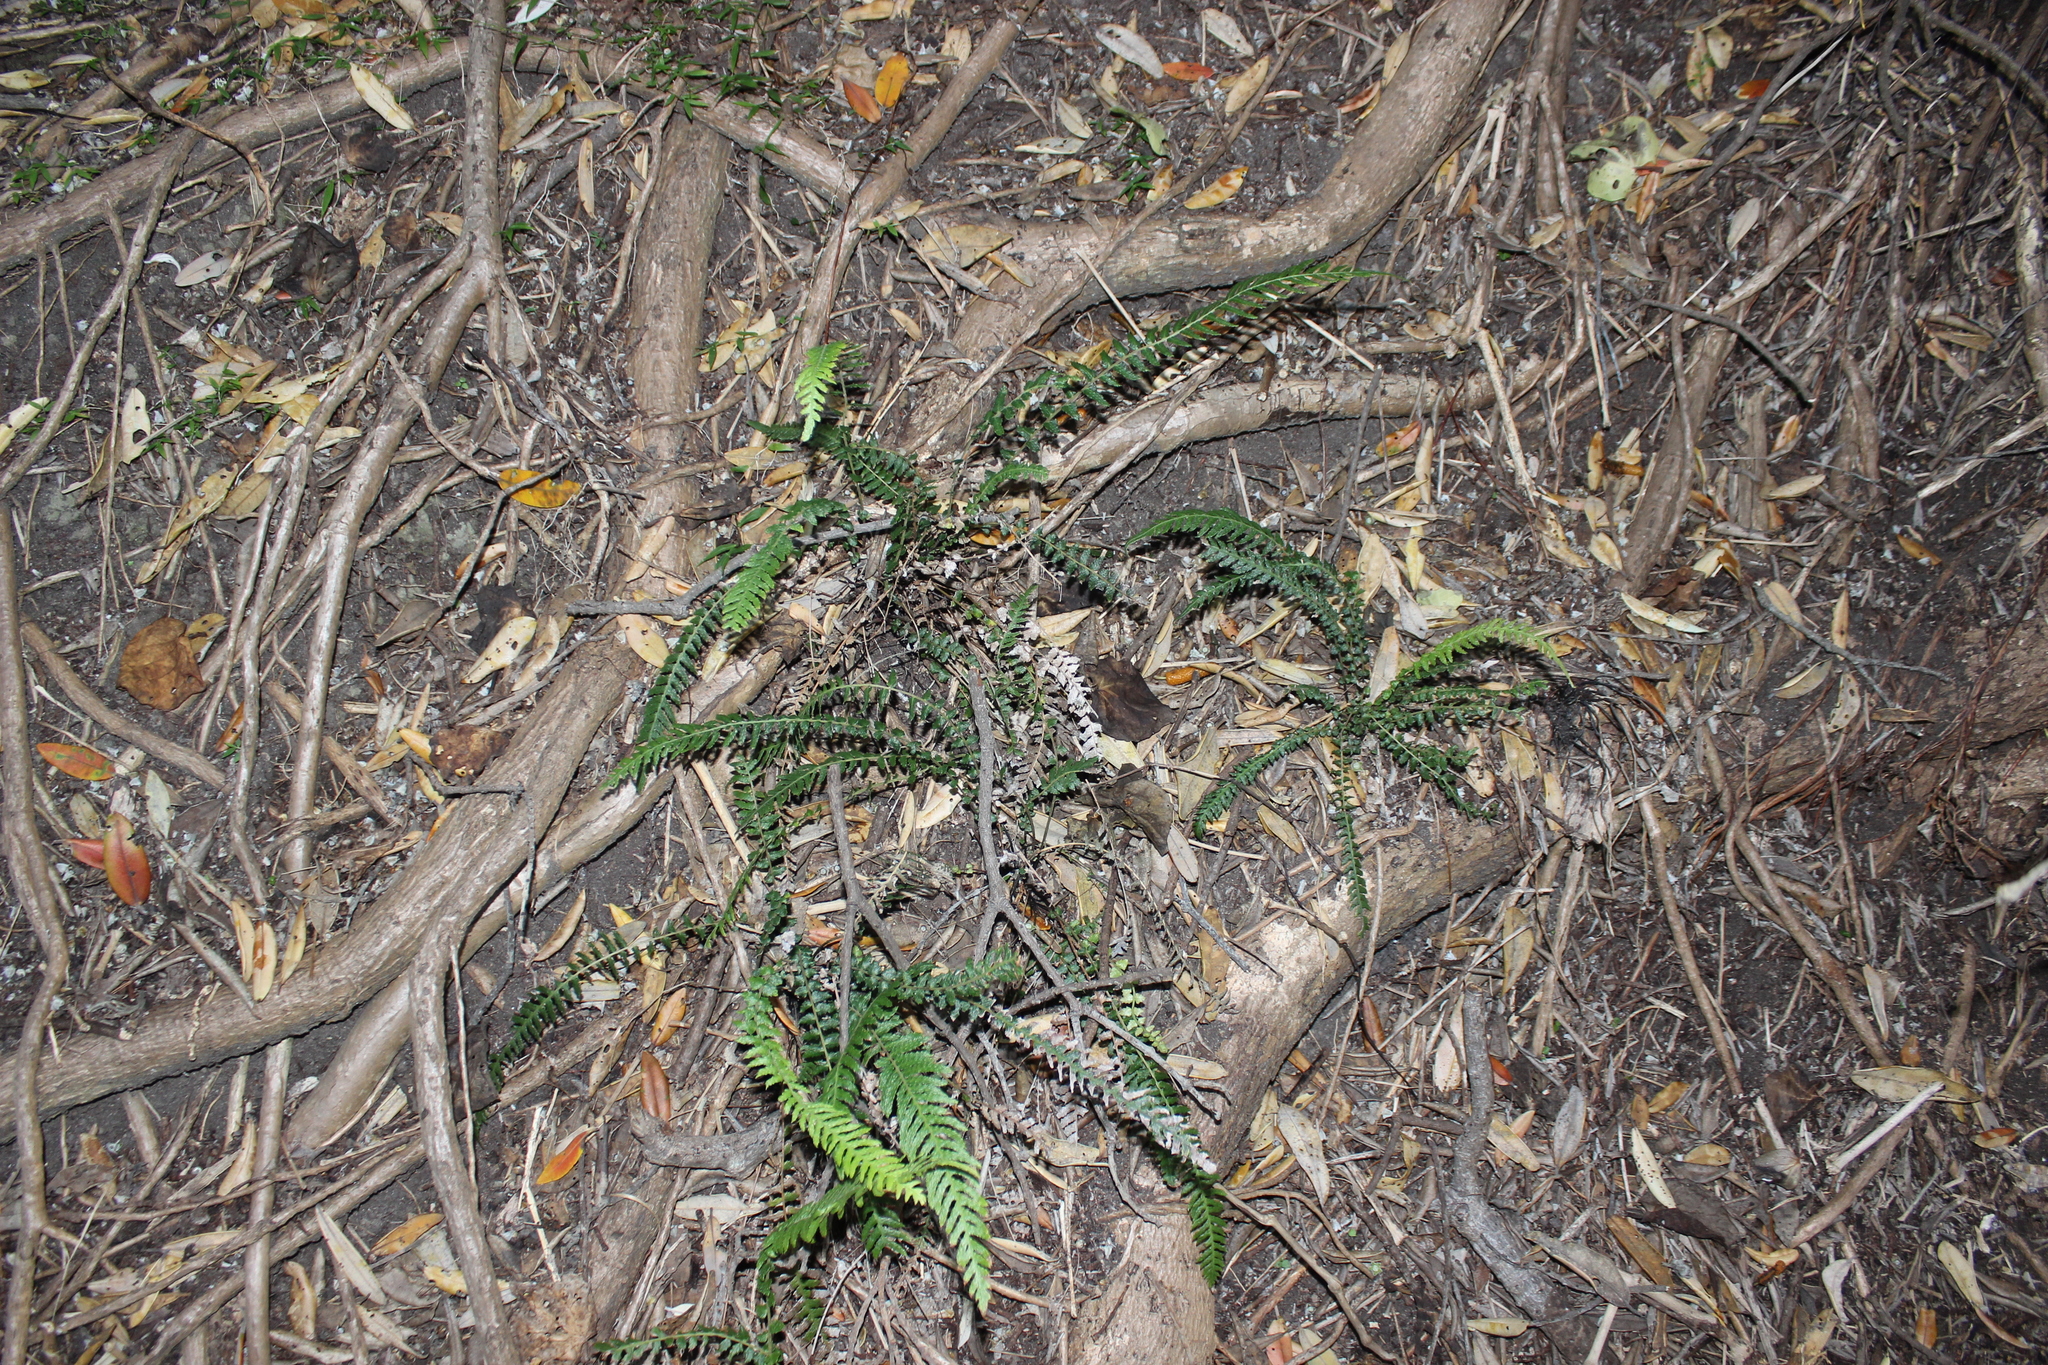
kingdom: Plantae
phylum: Tracheophyta
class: Polypodiopsida
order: Polypodiales
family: Blechnaceae
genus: Doodia
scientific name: Doodia australis
